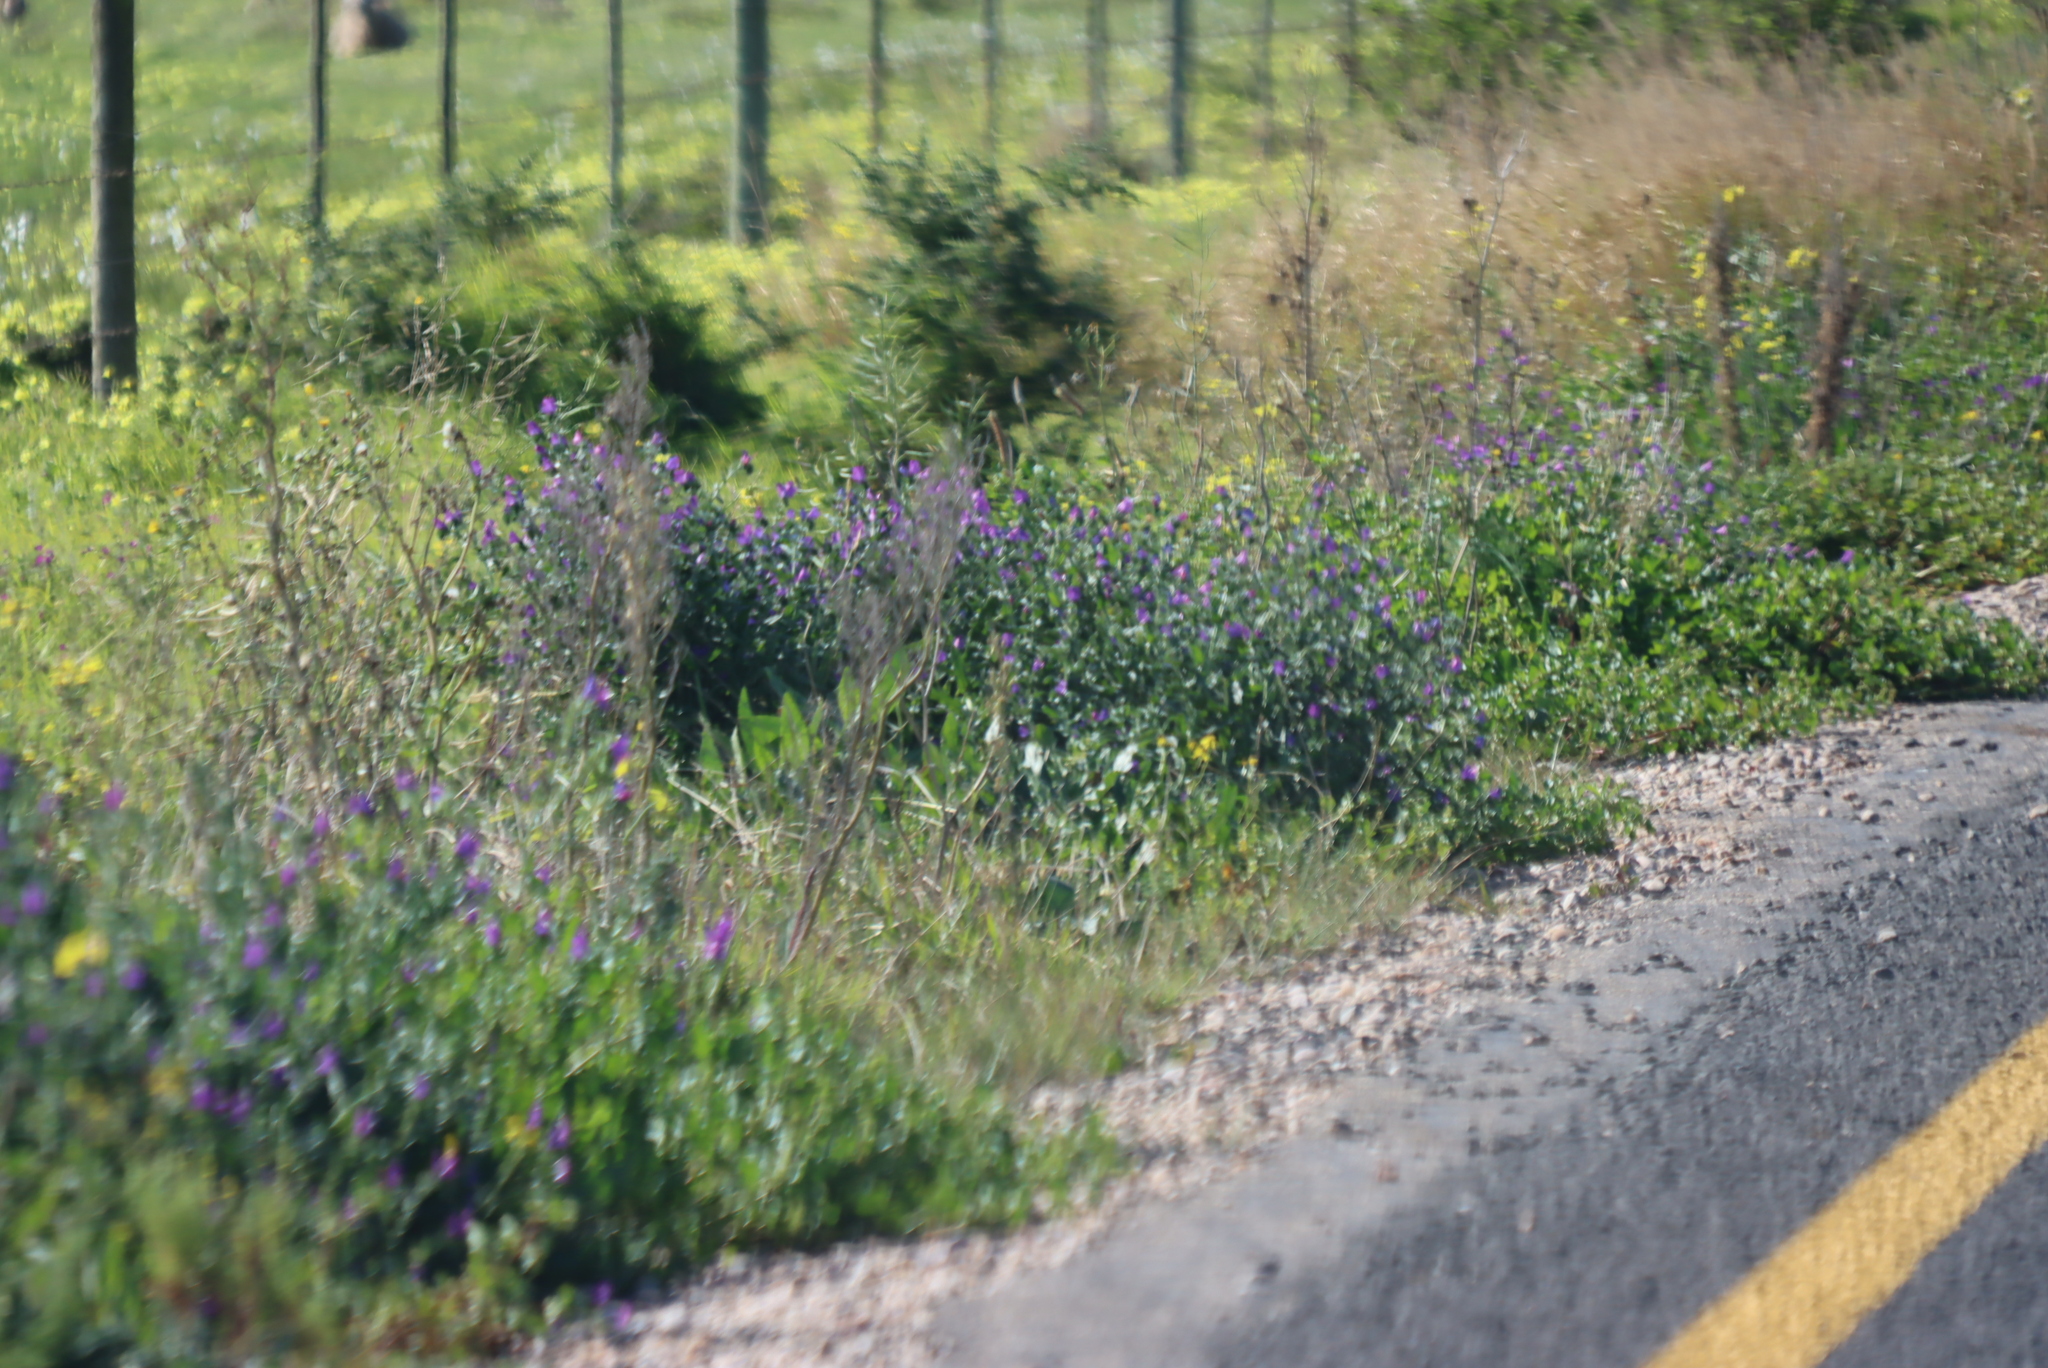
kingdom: Plantae
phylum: Tracheophyta
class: Magnoliopsida
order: Boraginales
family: Boraginaceae
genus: Echium
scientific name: Echium plantagineum
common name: Purple viper's-bugloss
